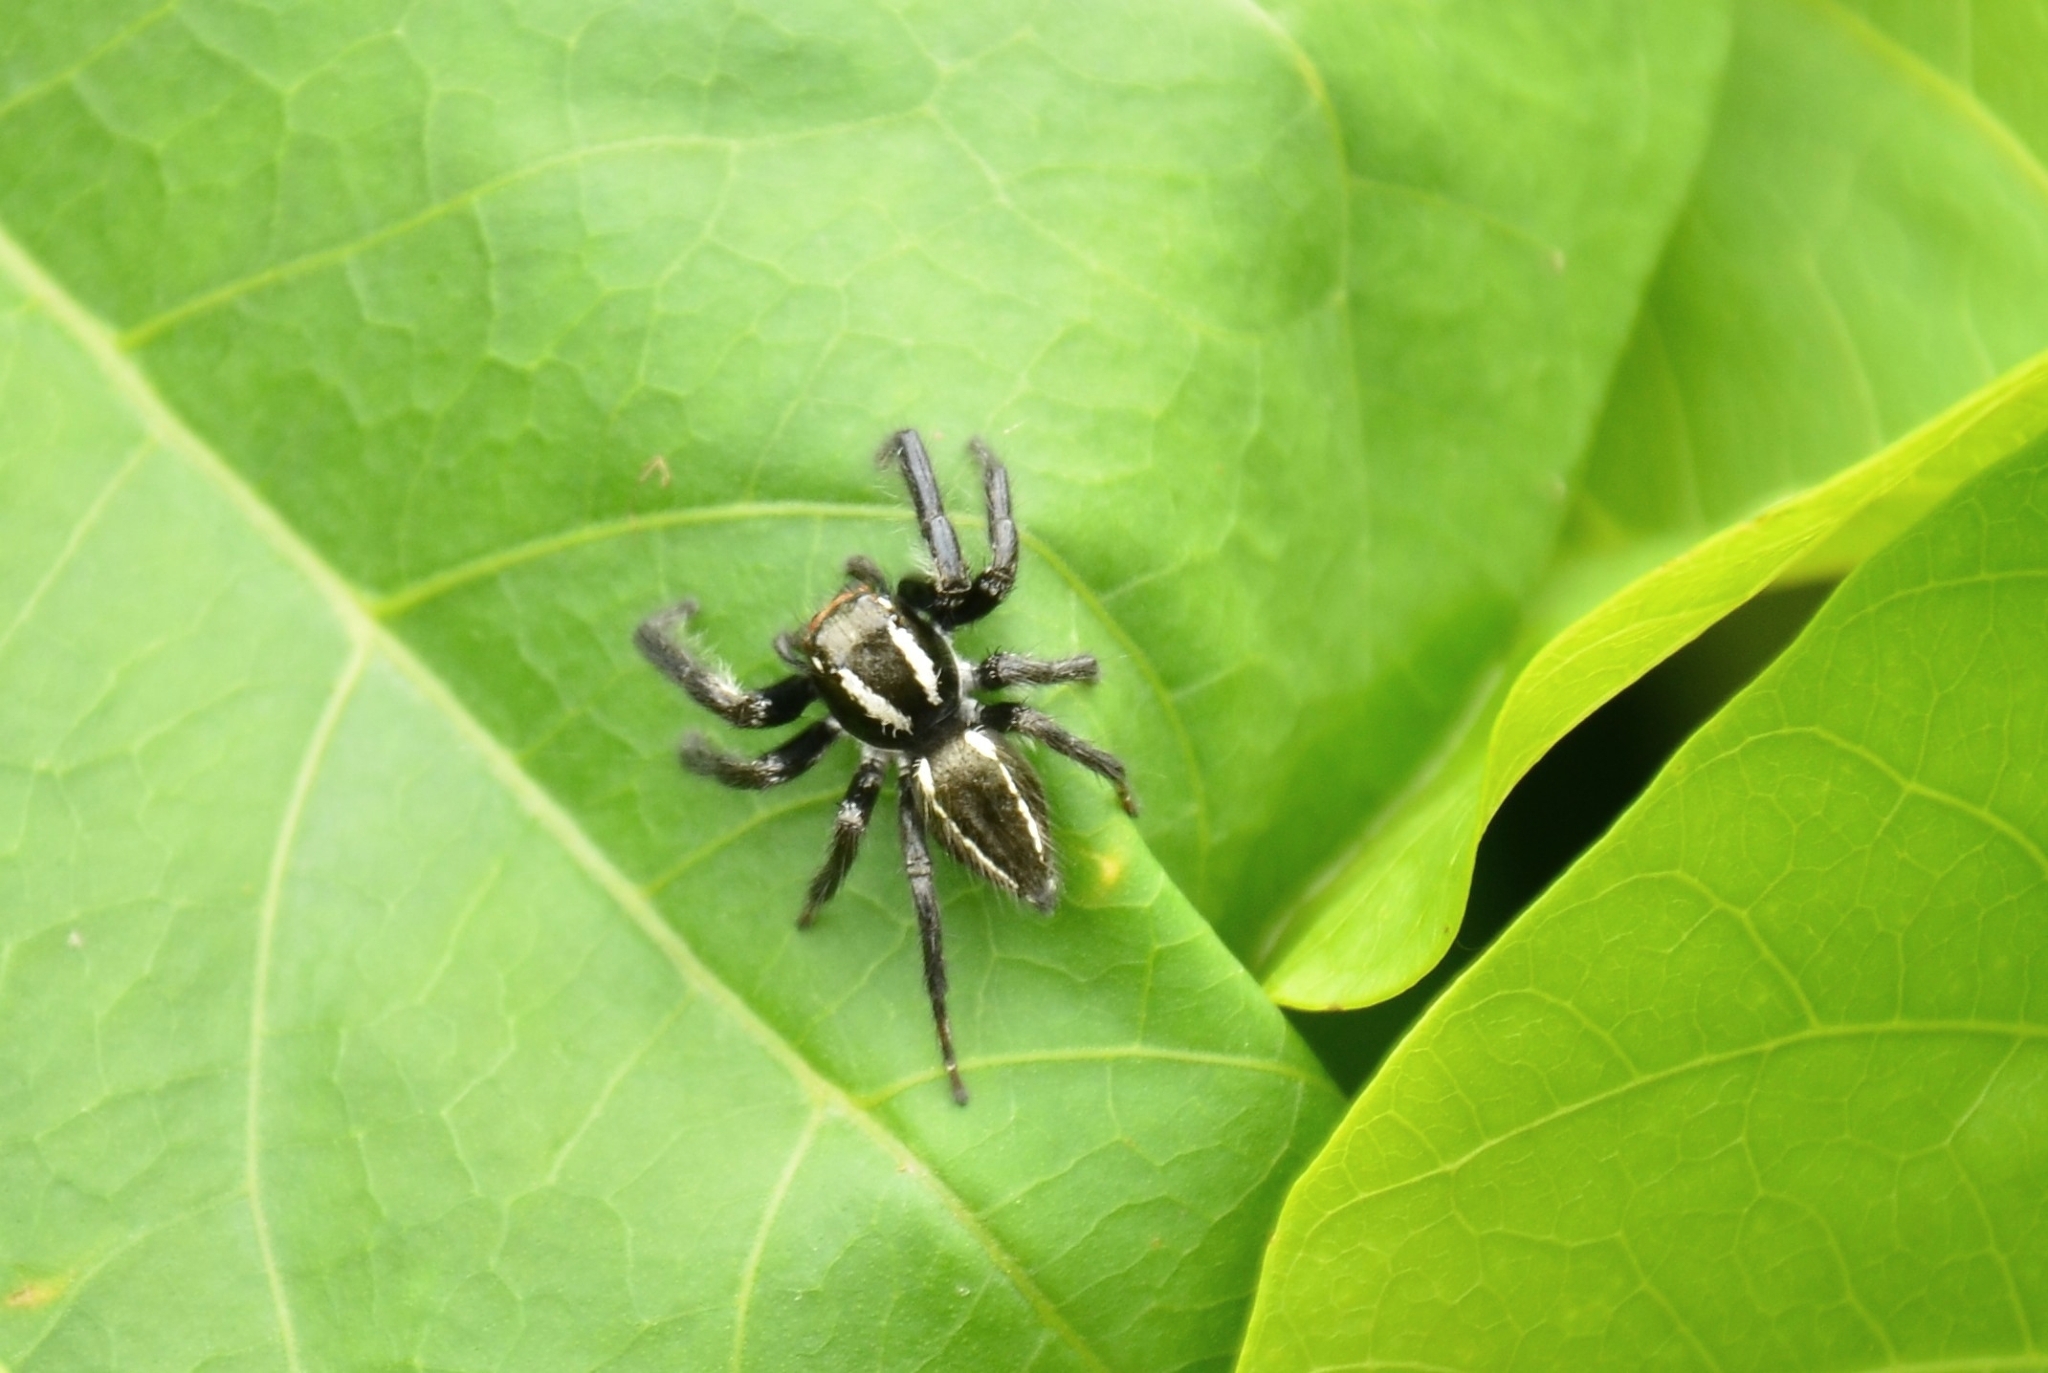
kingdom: Animalia
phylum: Arthropoda
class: Arachnida
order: Araneae
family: Salticidae
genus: Carrhotus
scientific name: Carrhotus viduus
